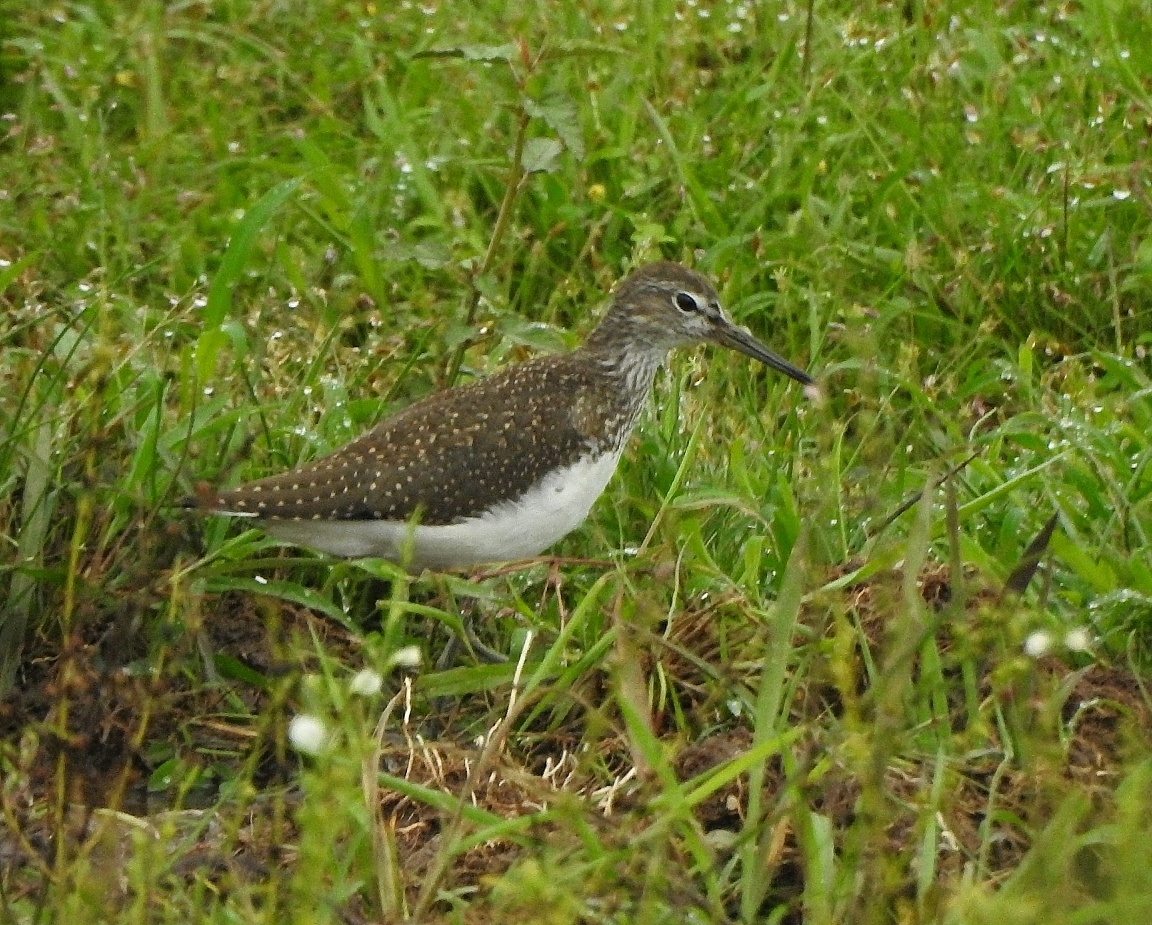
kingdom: Animalia
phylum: Chordata
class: Aves
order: Charadriiformes
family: Scolopacidae
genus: Tringa
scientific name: Tringa ochropus
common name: Green sandpiper
